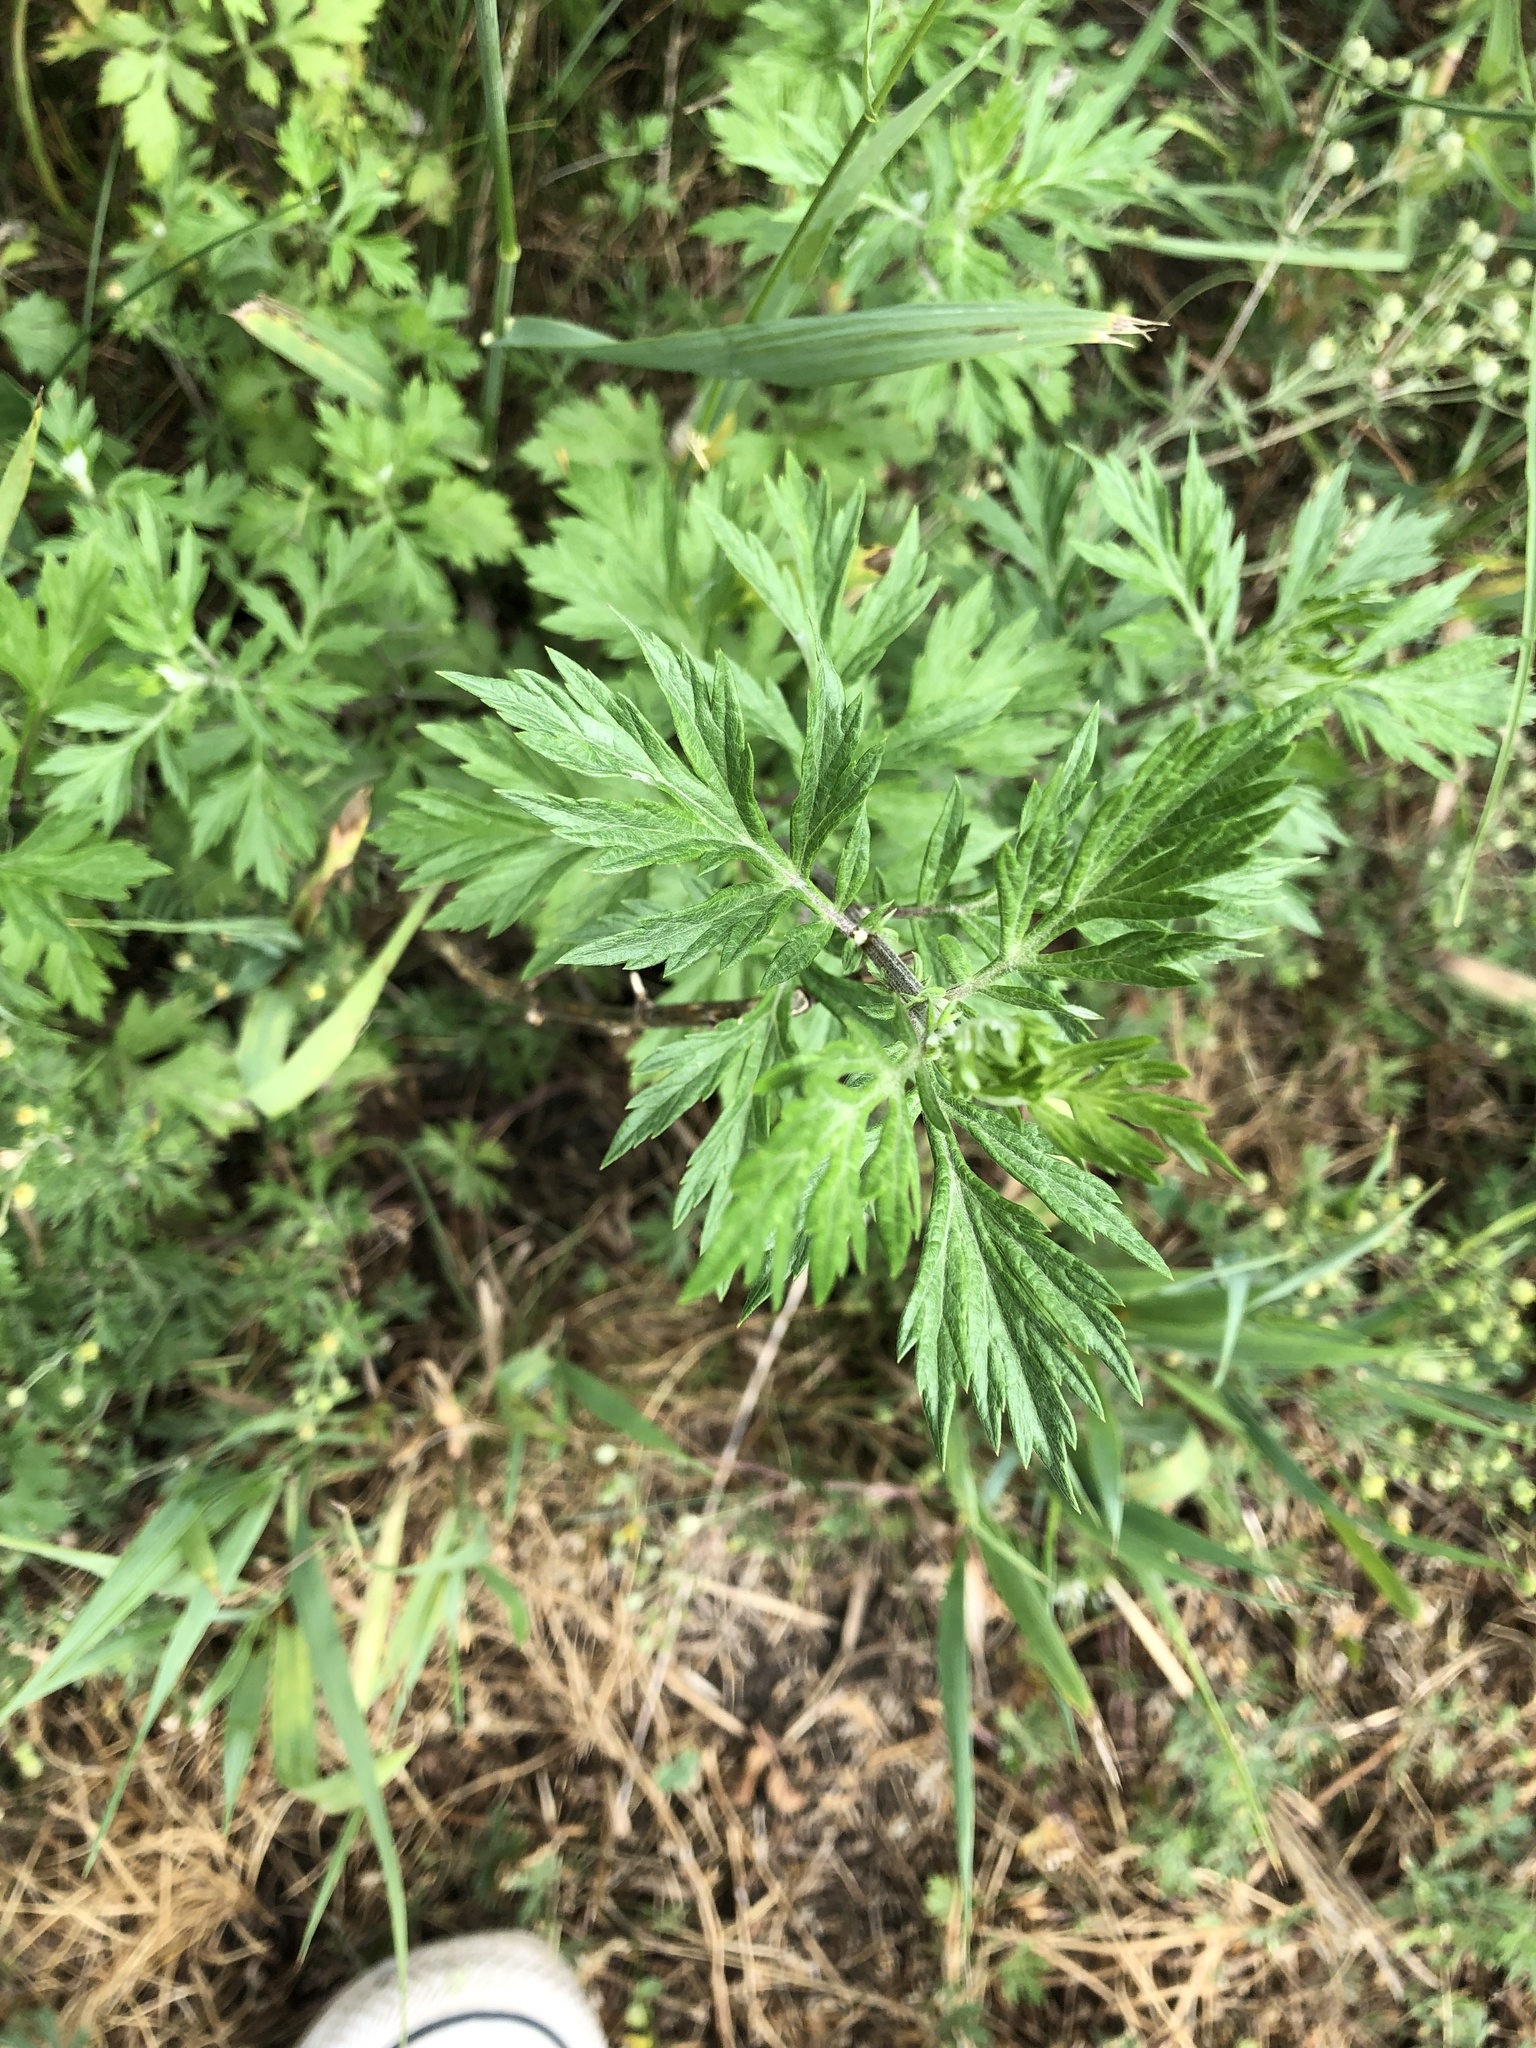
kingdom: Plantae
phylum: Tracheophyta
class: Magnoliopsida
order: Asterales
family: Asteraceae
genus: Artemisia
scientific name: Artemisia vulgaris
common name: Mugwort
